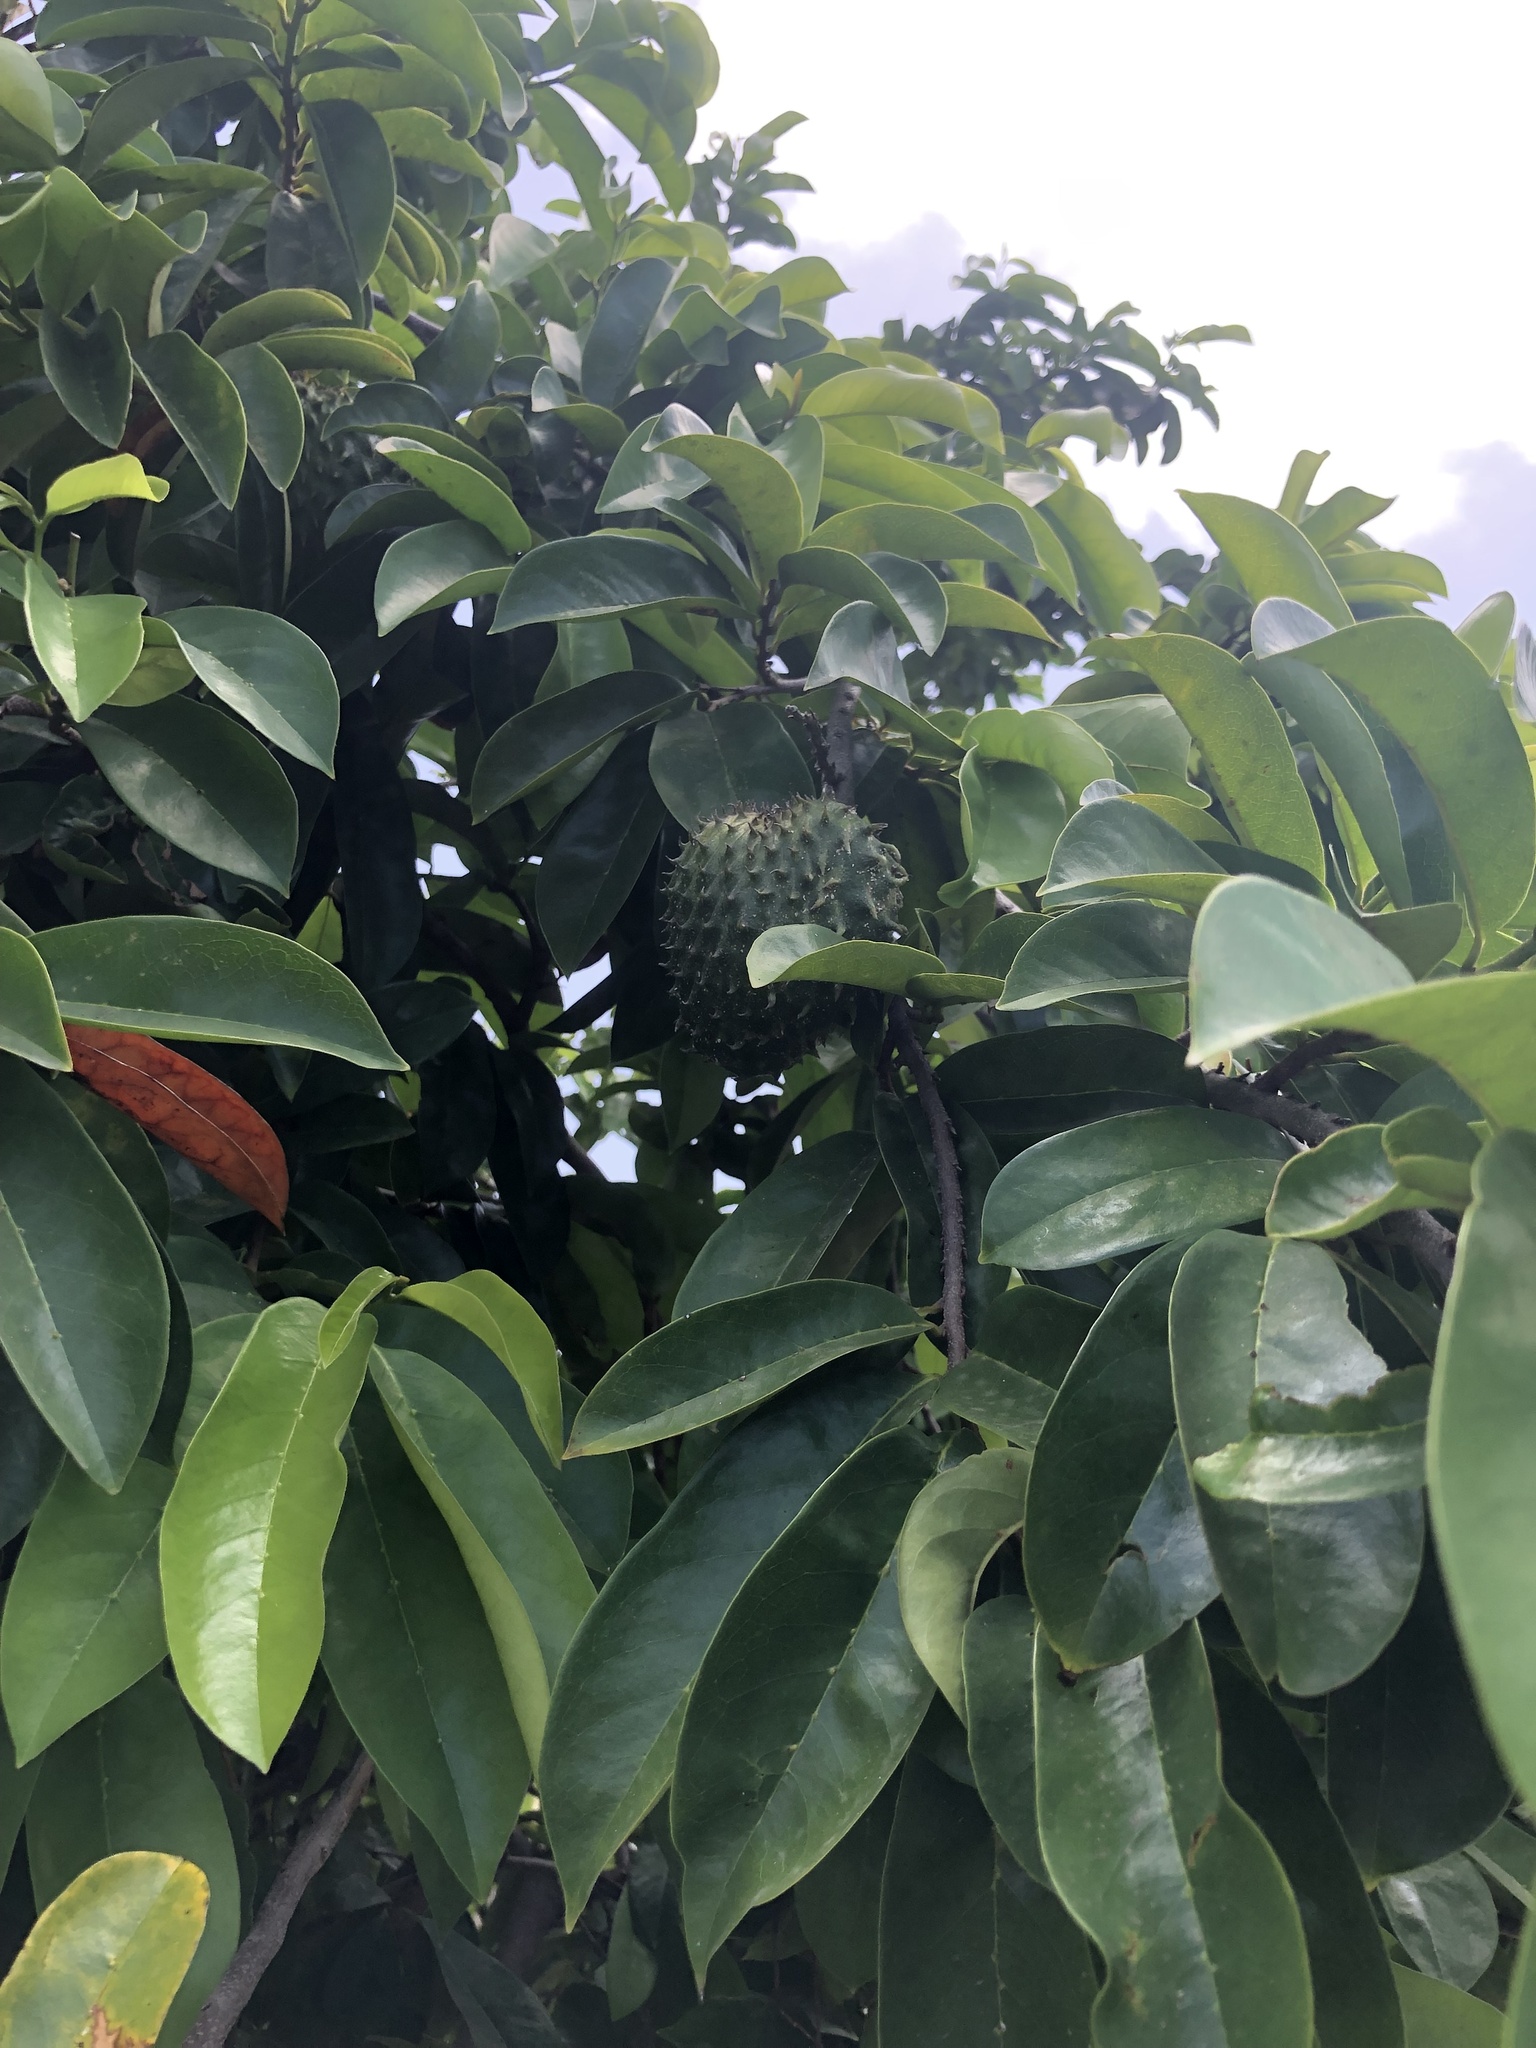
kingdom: Plantae
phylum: Tracheophyta
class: Magnoliopsida
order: Magnoliales
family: Annonaceae
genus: Annona
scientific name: Annona muricata
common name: Soursop
